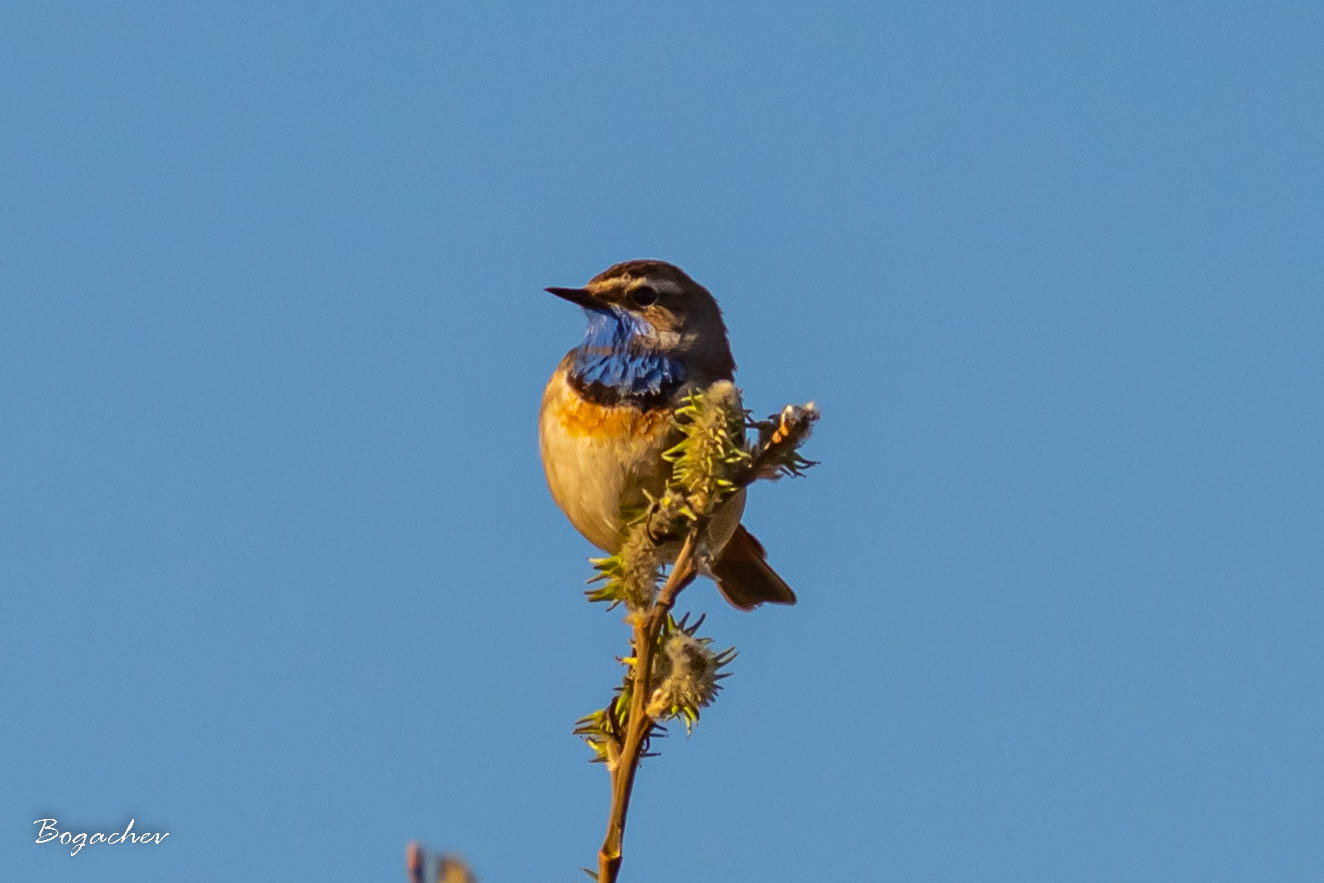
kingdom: Animalia
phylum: Chordata
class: Aves
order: Passeriformes
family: Muscicapidae
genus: Luscinia
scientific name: Luscinia svecica
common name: Bluethroat
